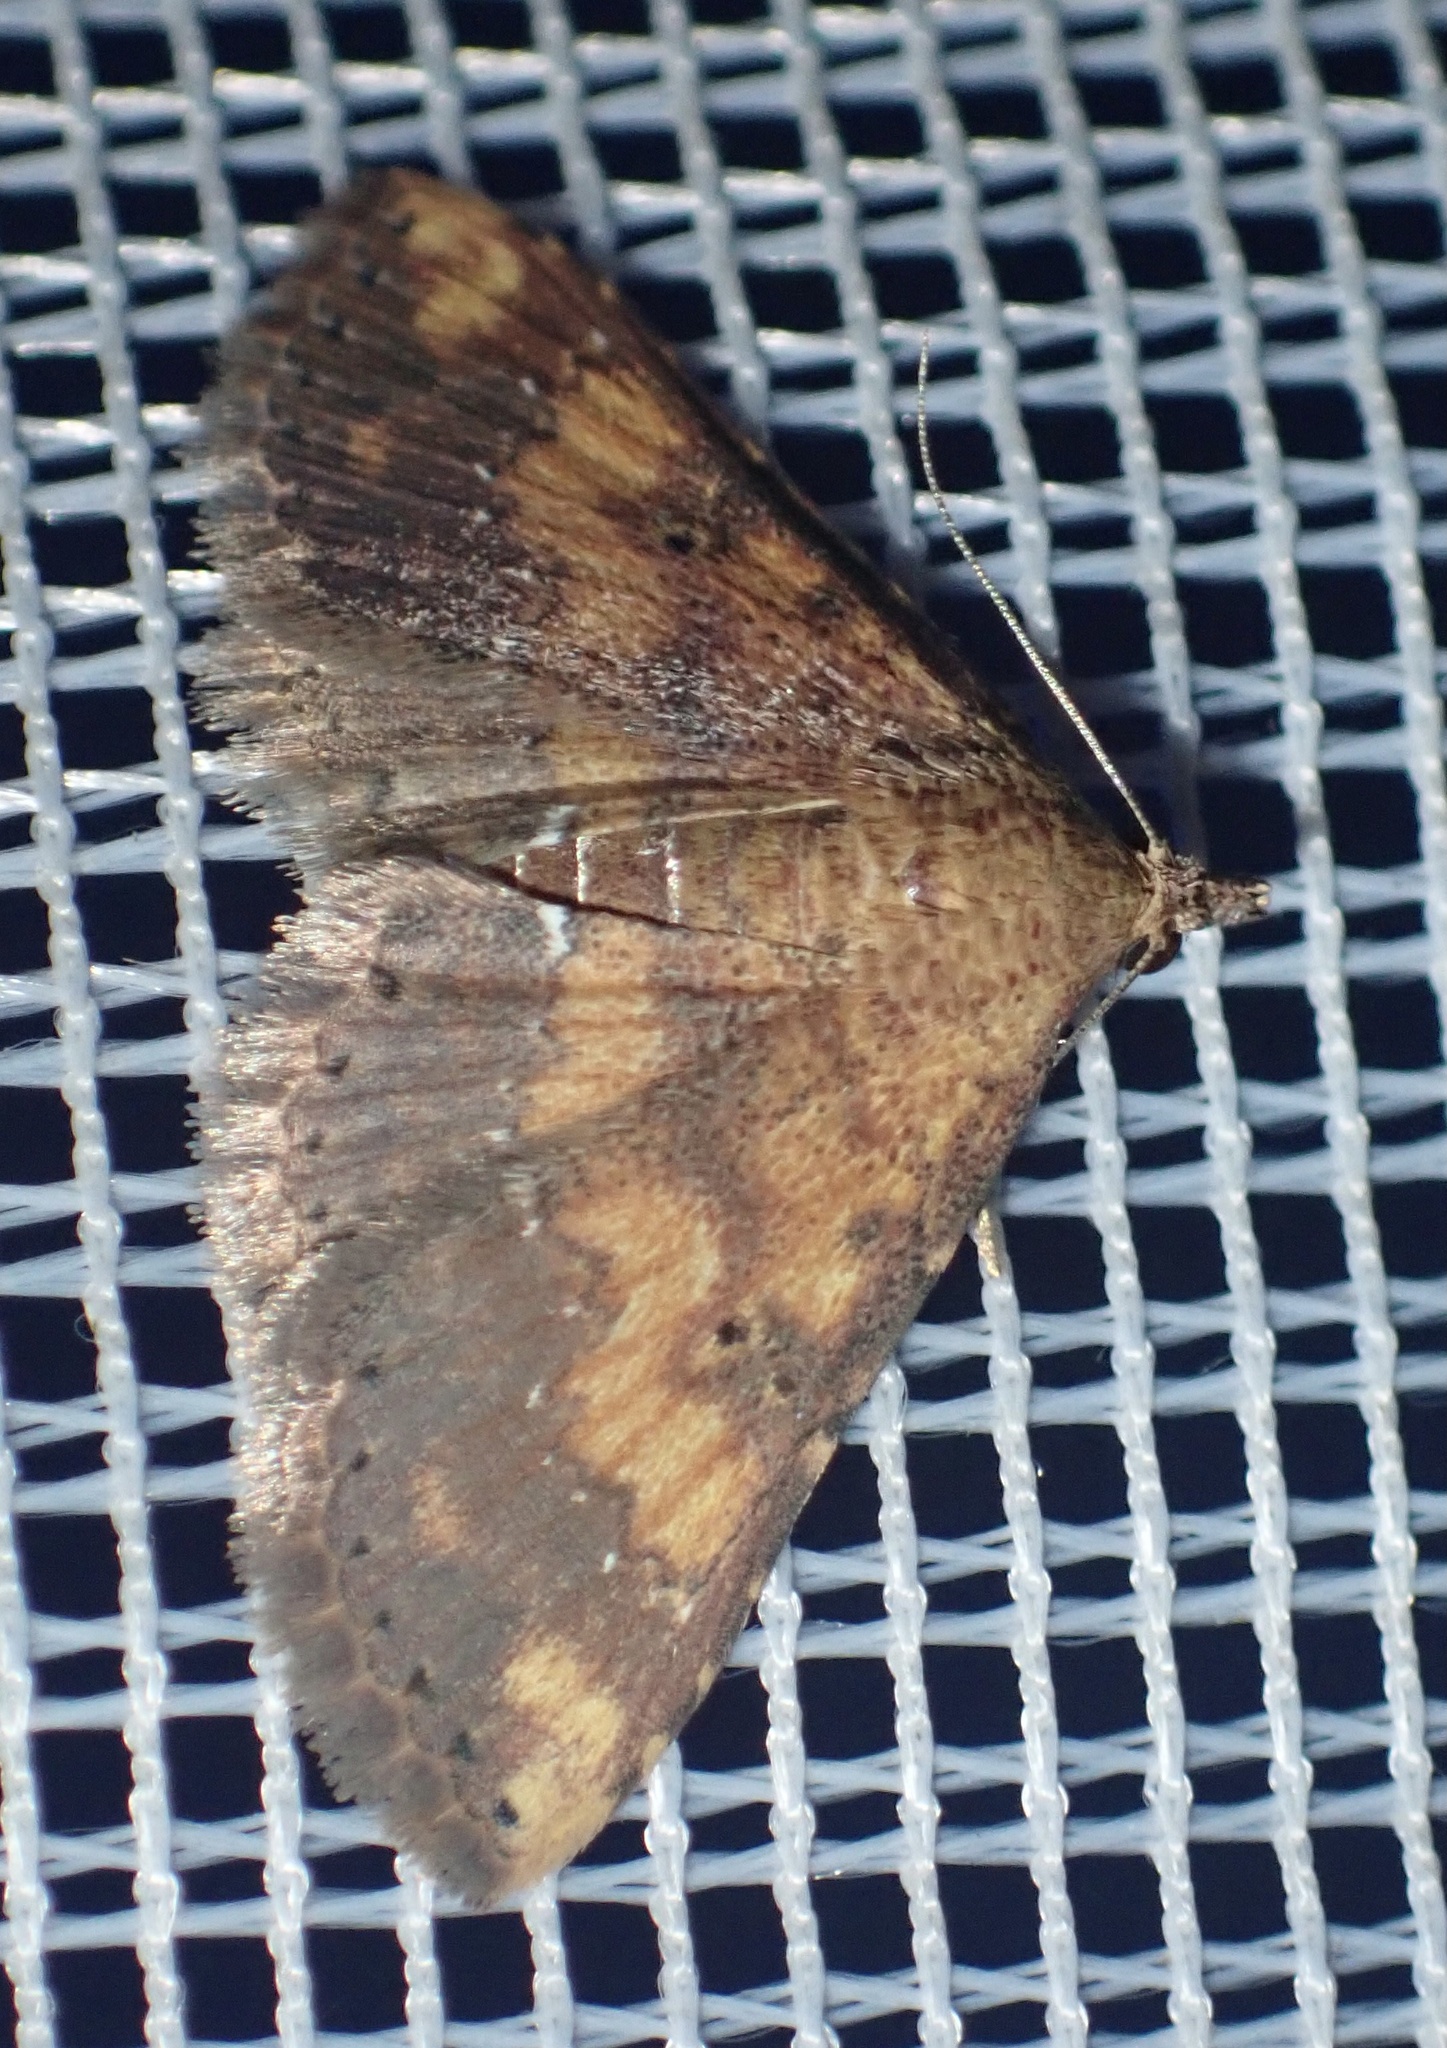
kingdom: Animalia
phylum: Arthropoda
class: Insecta
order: Lepidoptera
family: Noctuidae
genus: Cerynea
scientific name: Cerynea thermesialis
